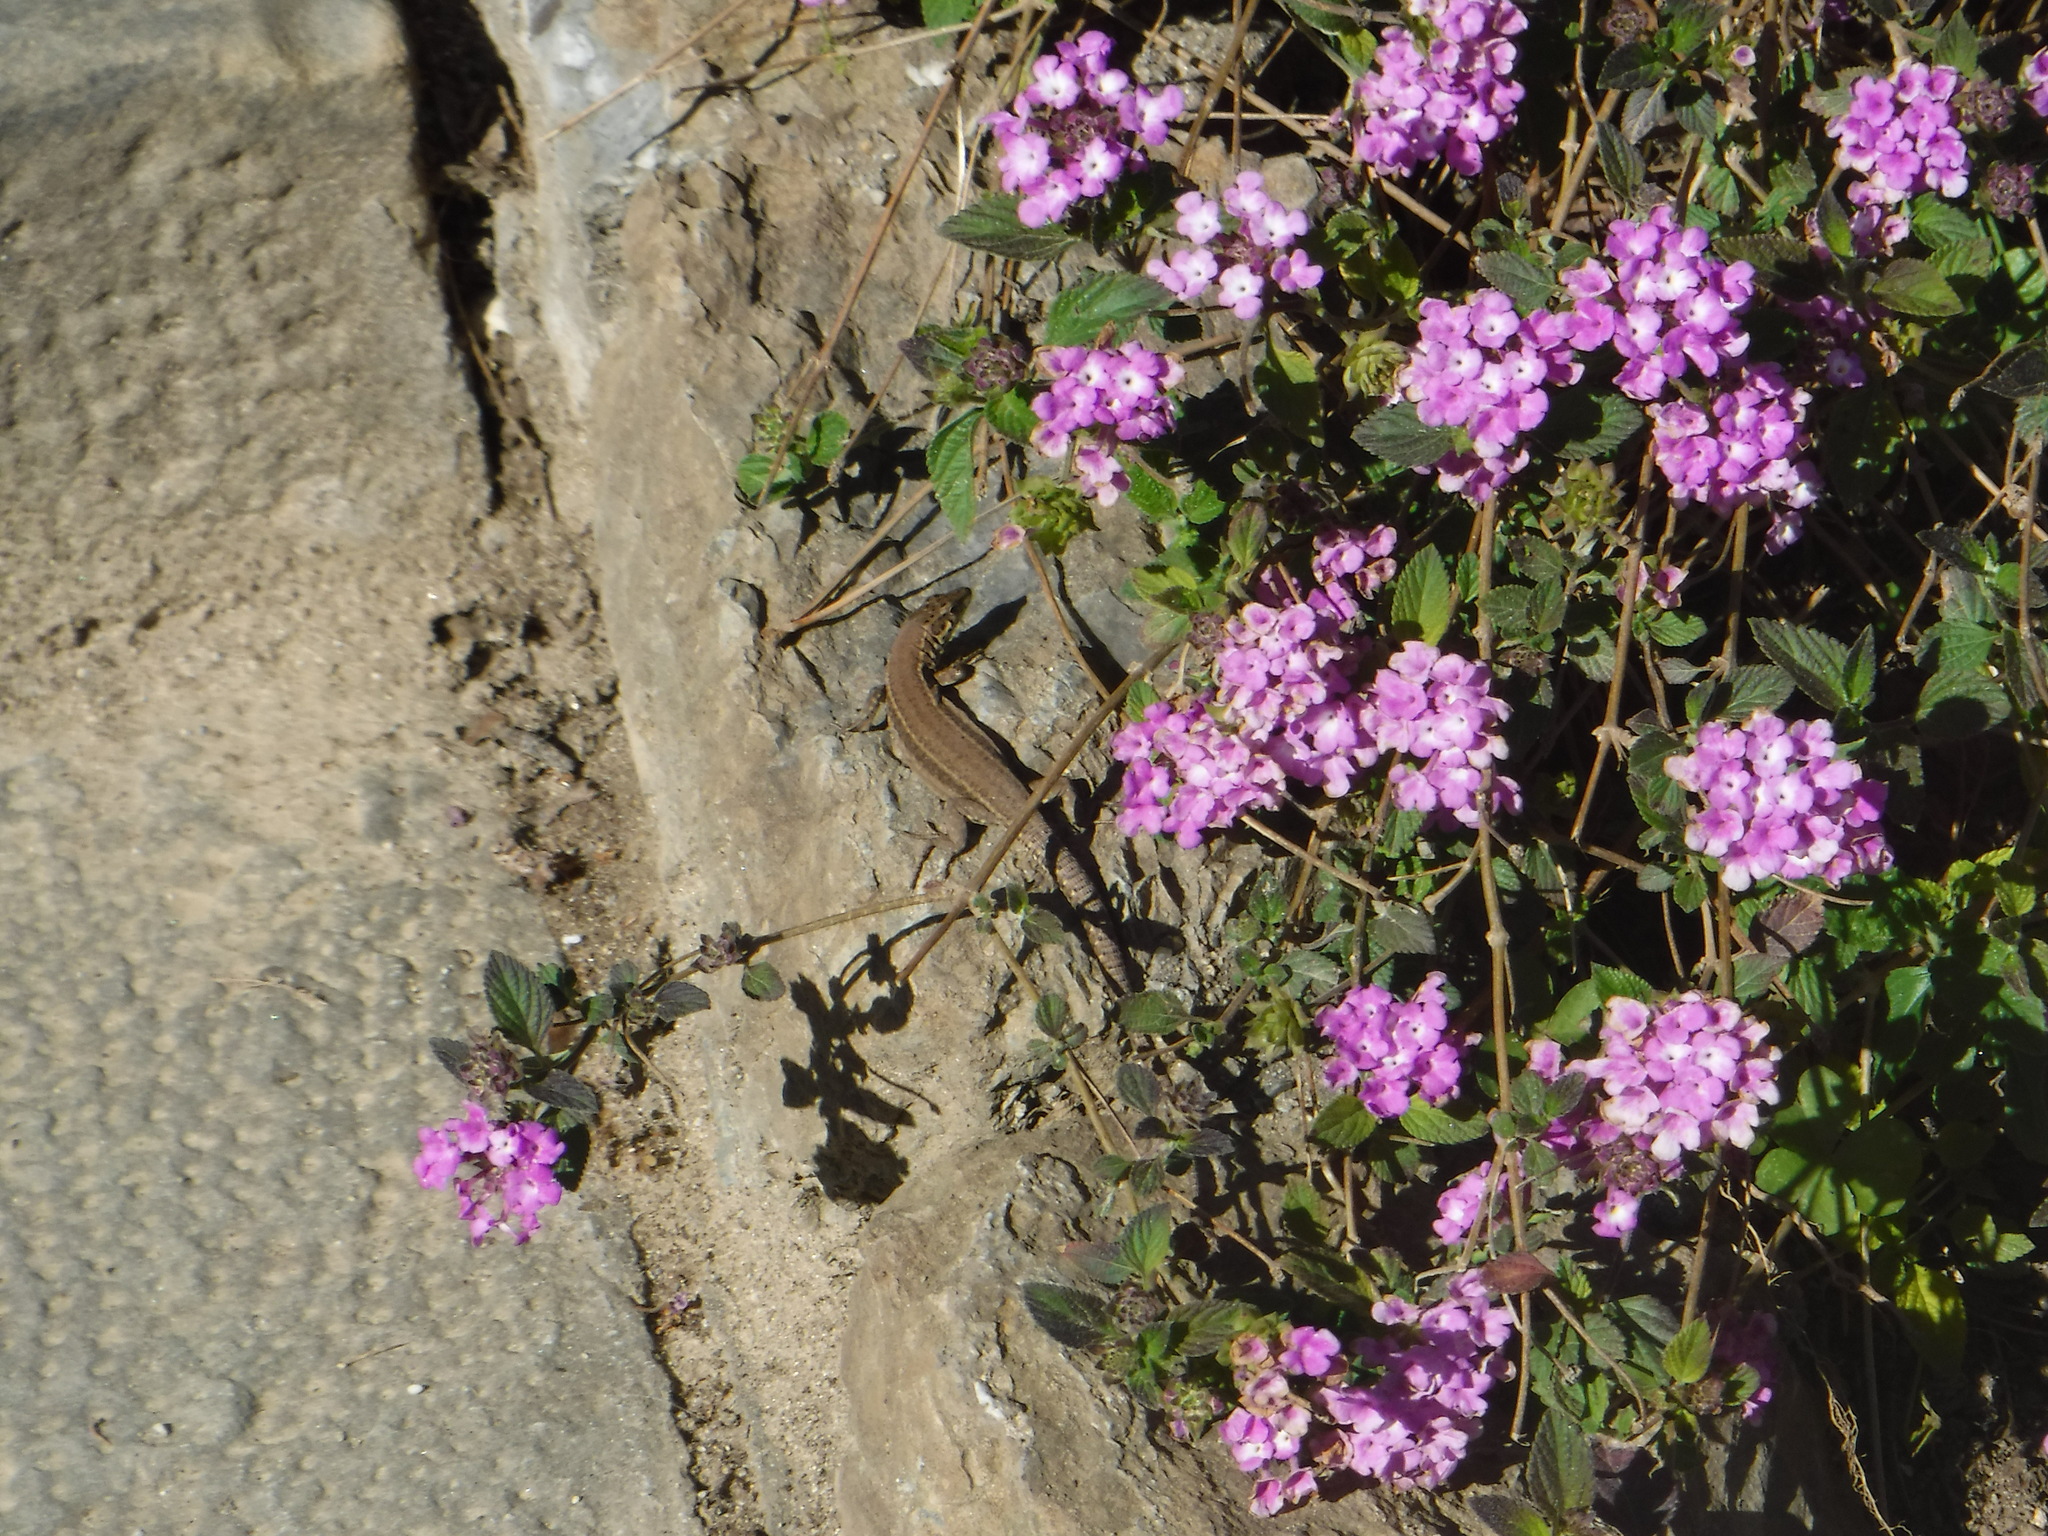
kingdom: Animalia
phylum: Chordata
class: Squamata
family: Lacertidae
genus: Podarcis
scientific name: Podarcis liolepis
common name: Catalonian wall lizard
